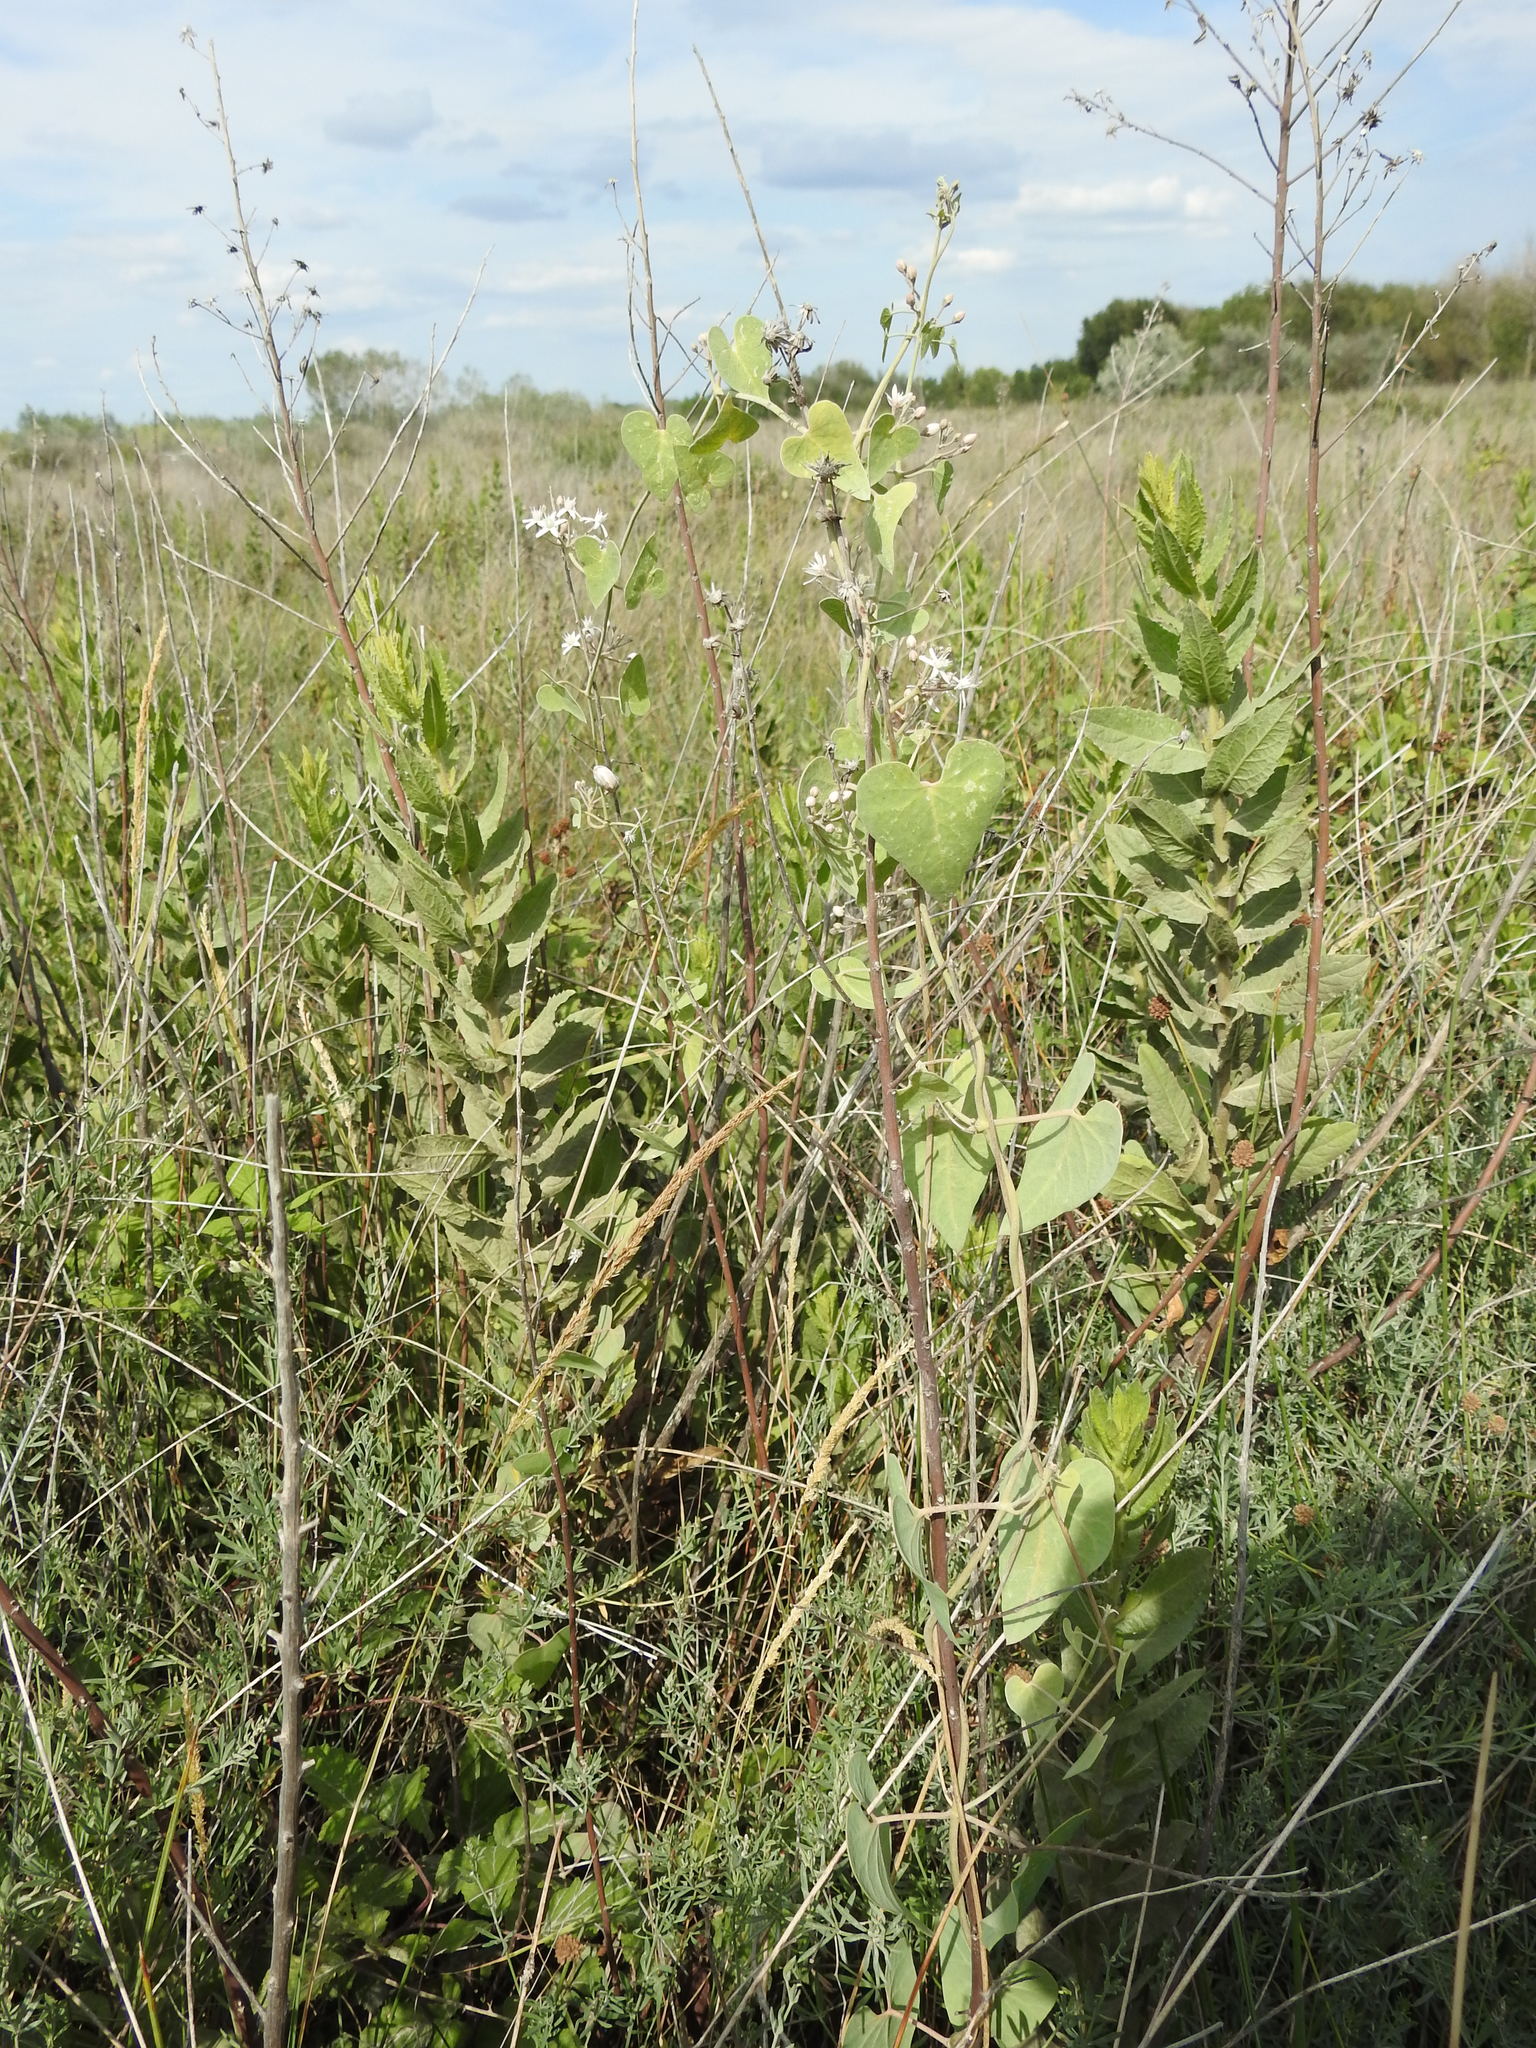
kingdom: Plantae
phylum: Tracheophyta
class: Magnoliopsida
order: Gentianales
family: Apocynaceae
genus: Cynanchum
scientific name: Cynanchum acutum
